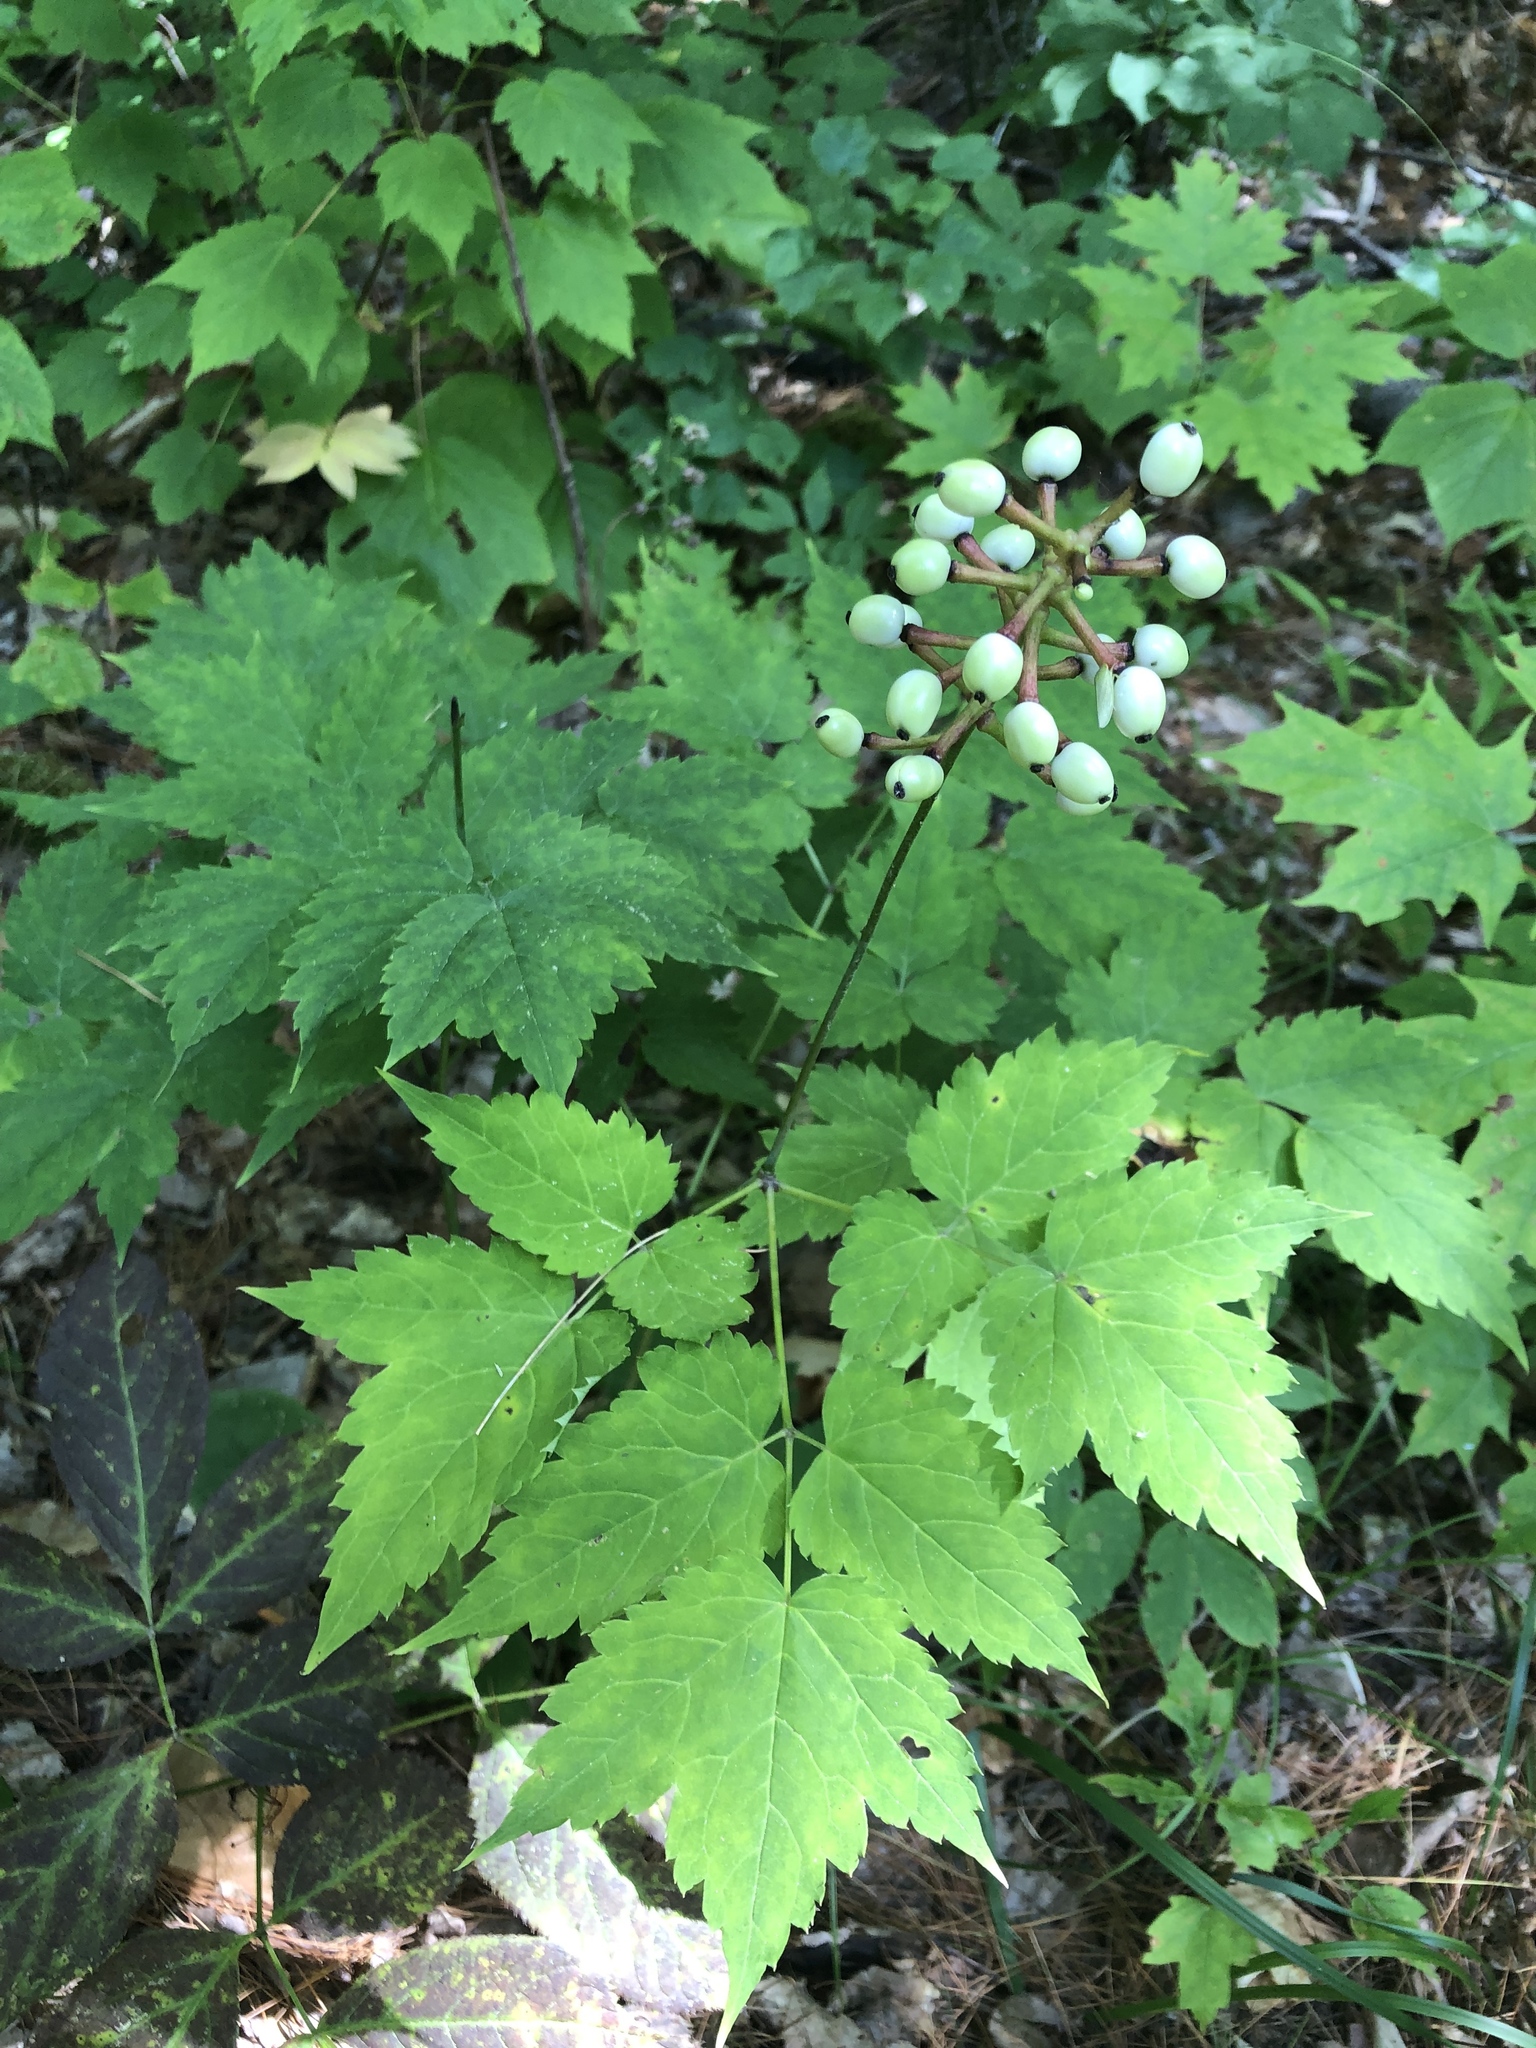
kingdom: Plantae
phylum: Tracheophyta
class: Magnoliopsida
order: Ranunculales
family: Ranunculaceae
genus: Actaea
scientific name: Actaea pachypoda
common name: Doll's-eyes
